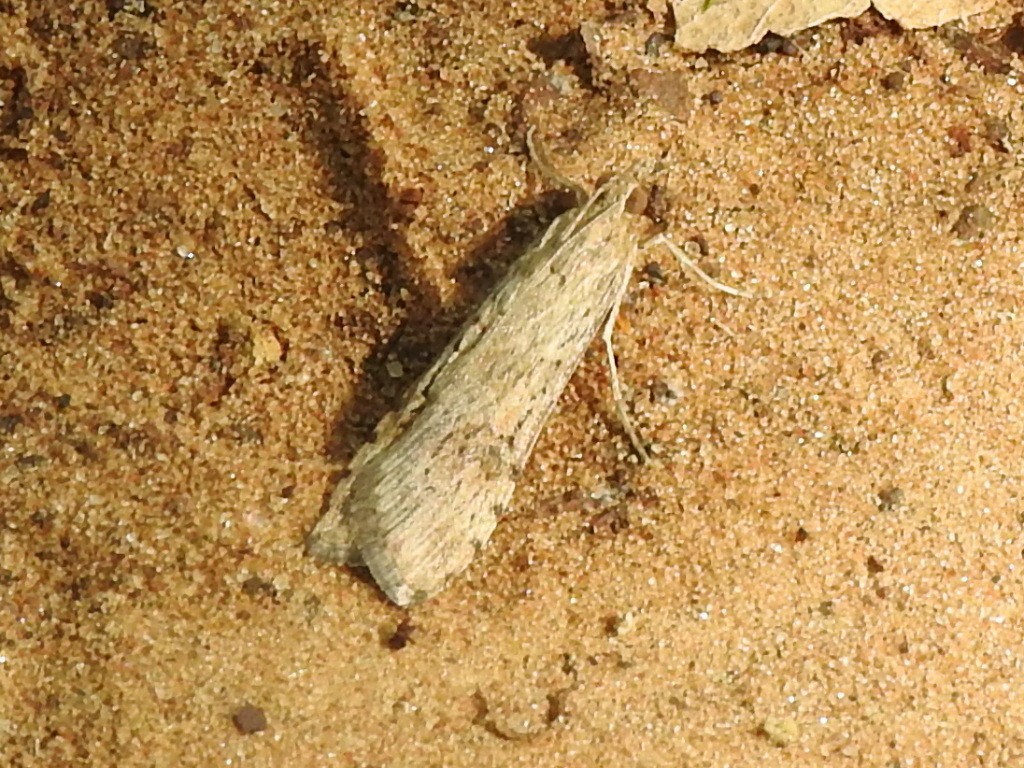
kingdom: Animalia
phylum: Arthropoda
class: Insecta
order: Lepidoptera
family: Crambidae
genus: Nomophila
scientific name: Nomophila nearctica
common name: American rush veneer
